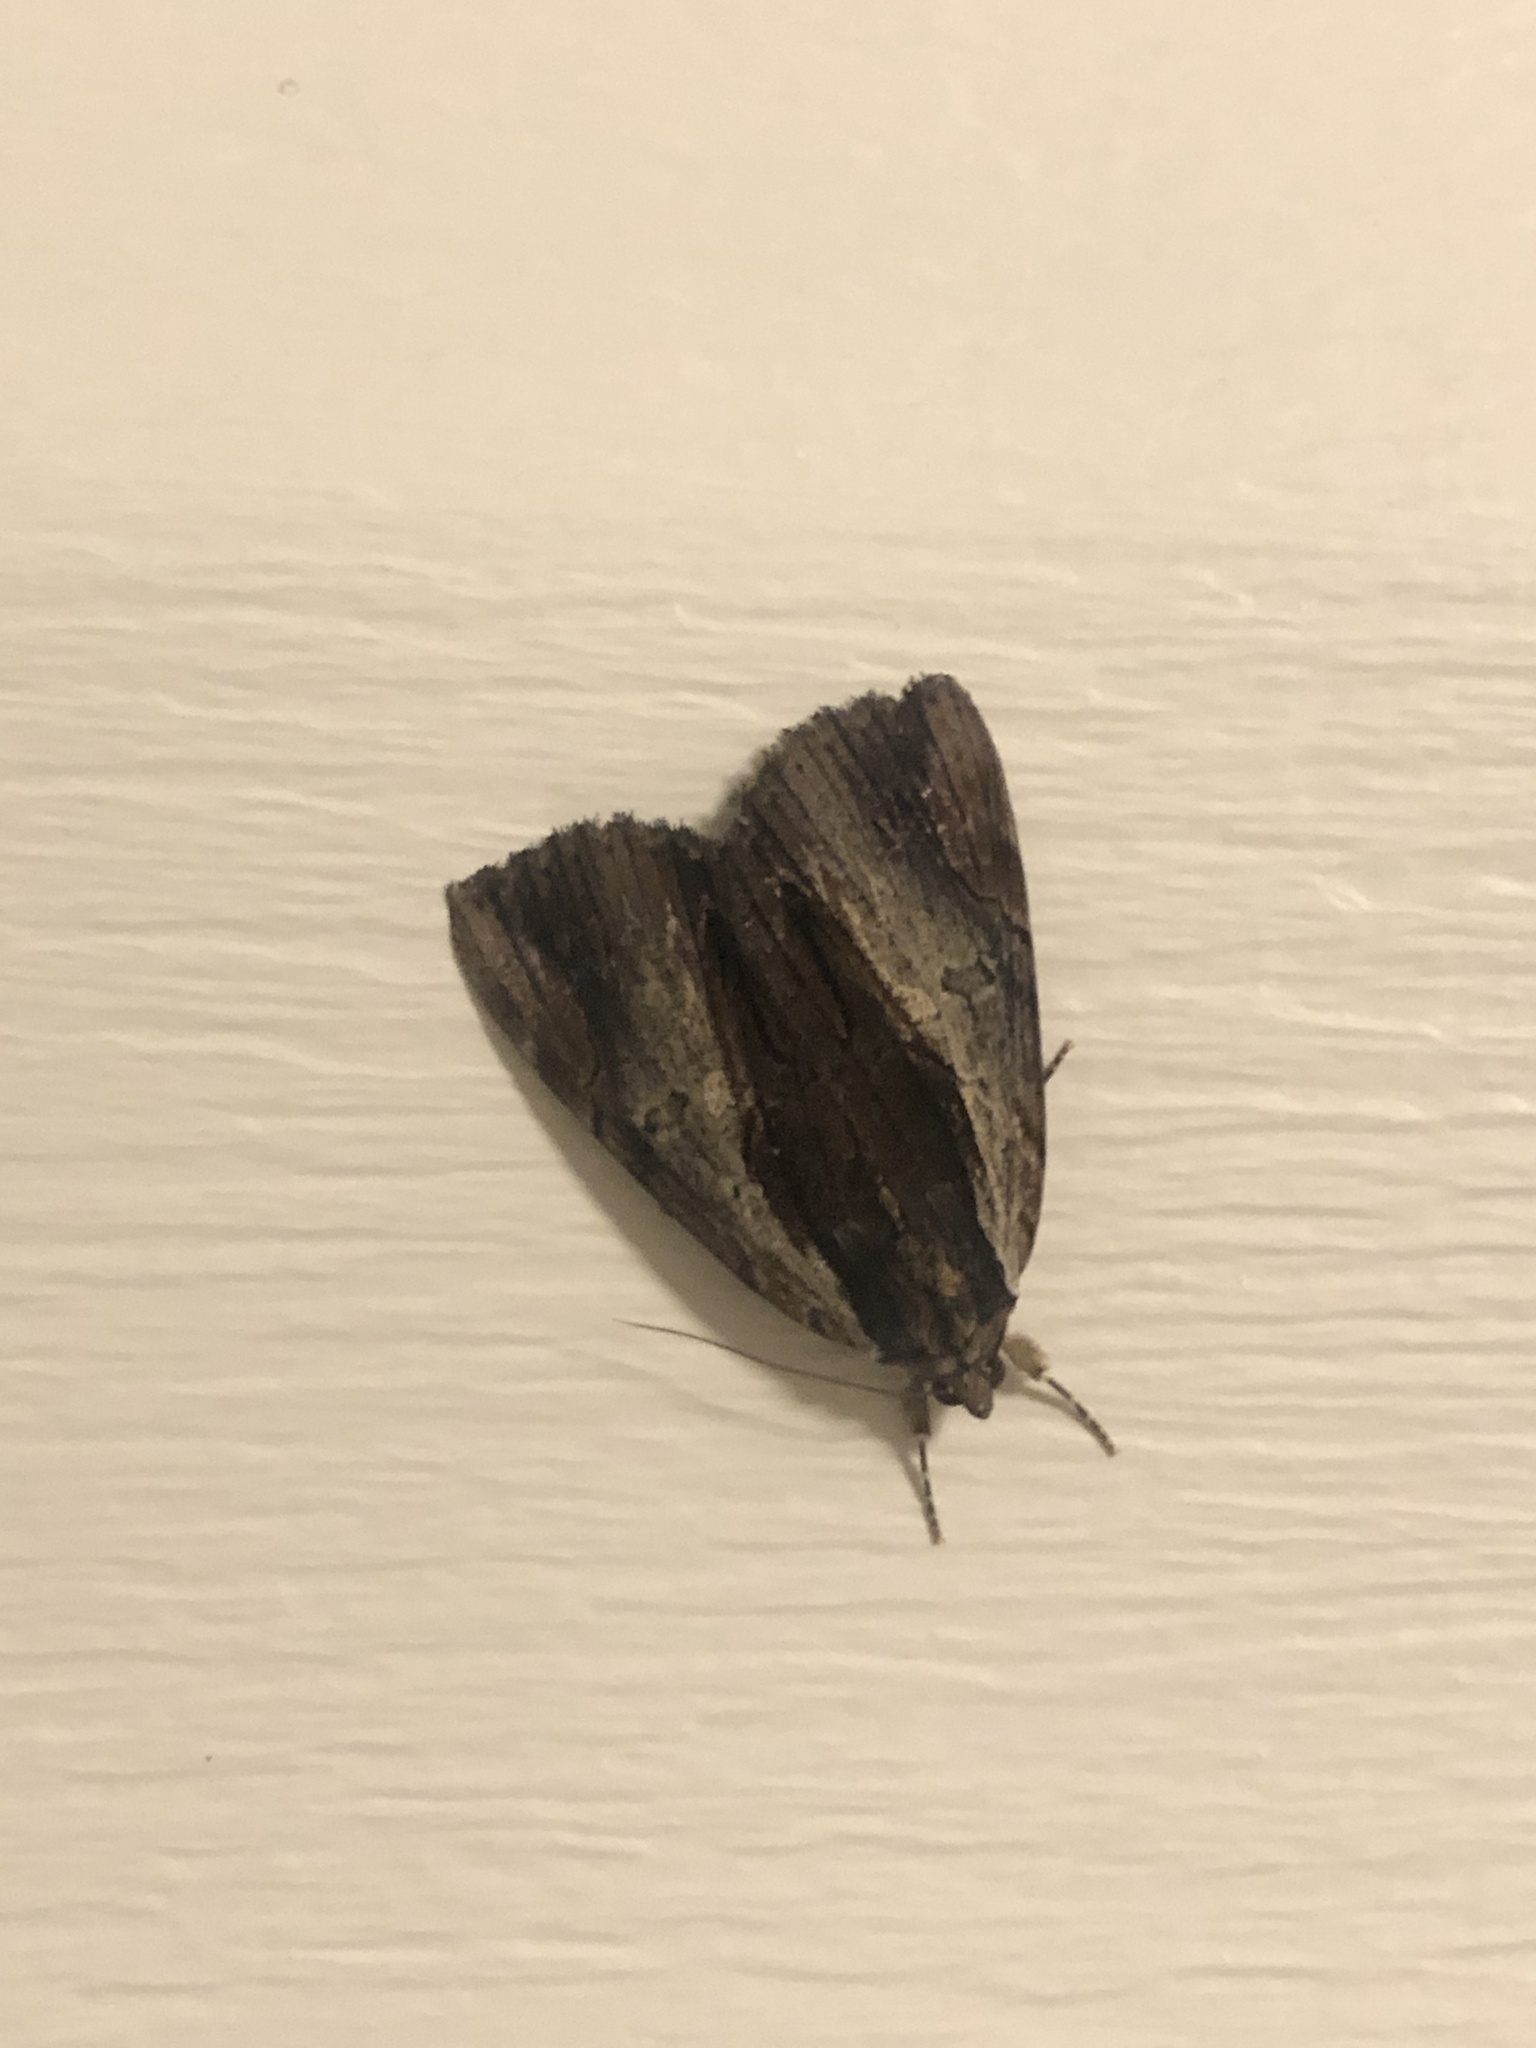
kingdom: Animalia
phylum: Arthropoda
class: Insecta
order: Lepidoptera
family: Erebidae
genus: Catocala
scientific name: Catocala ultronia
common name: Ultronia underwing
